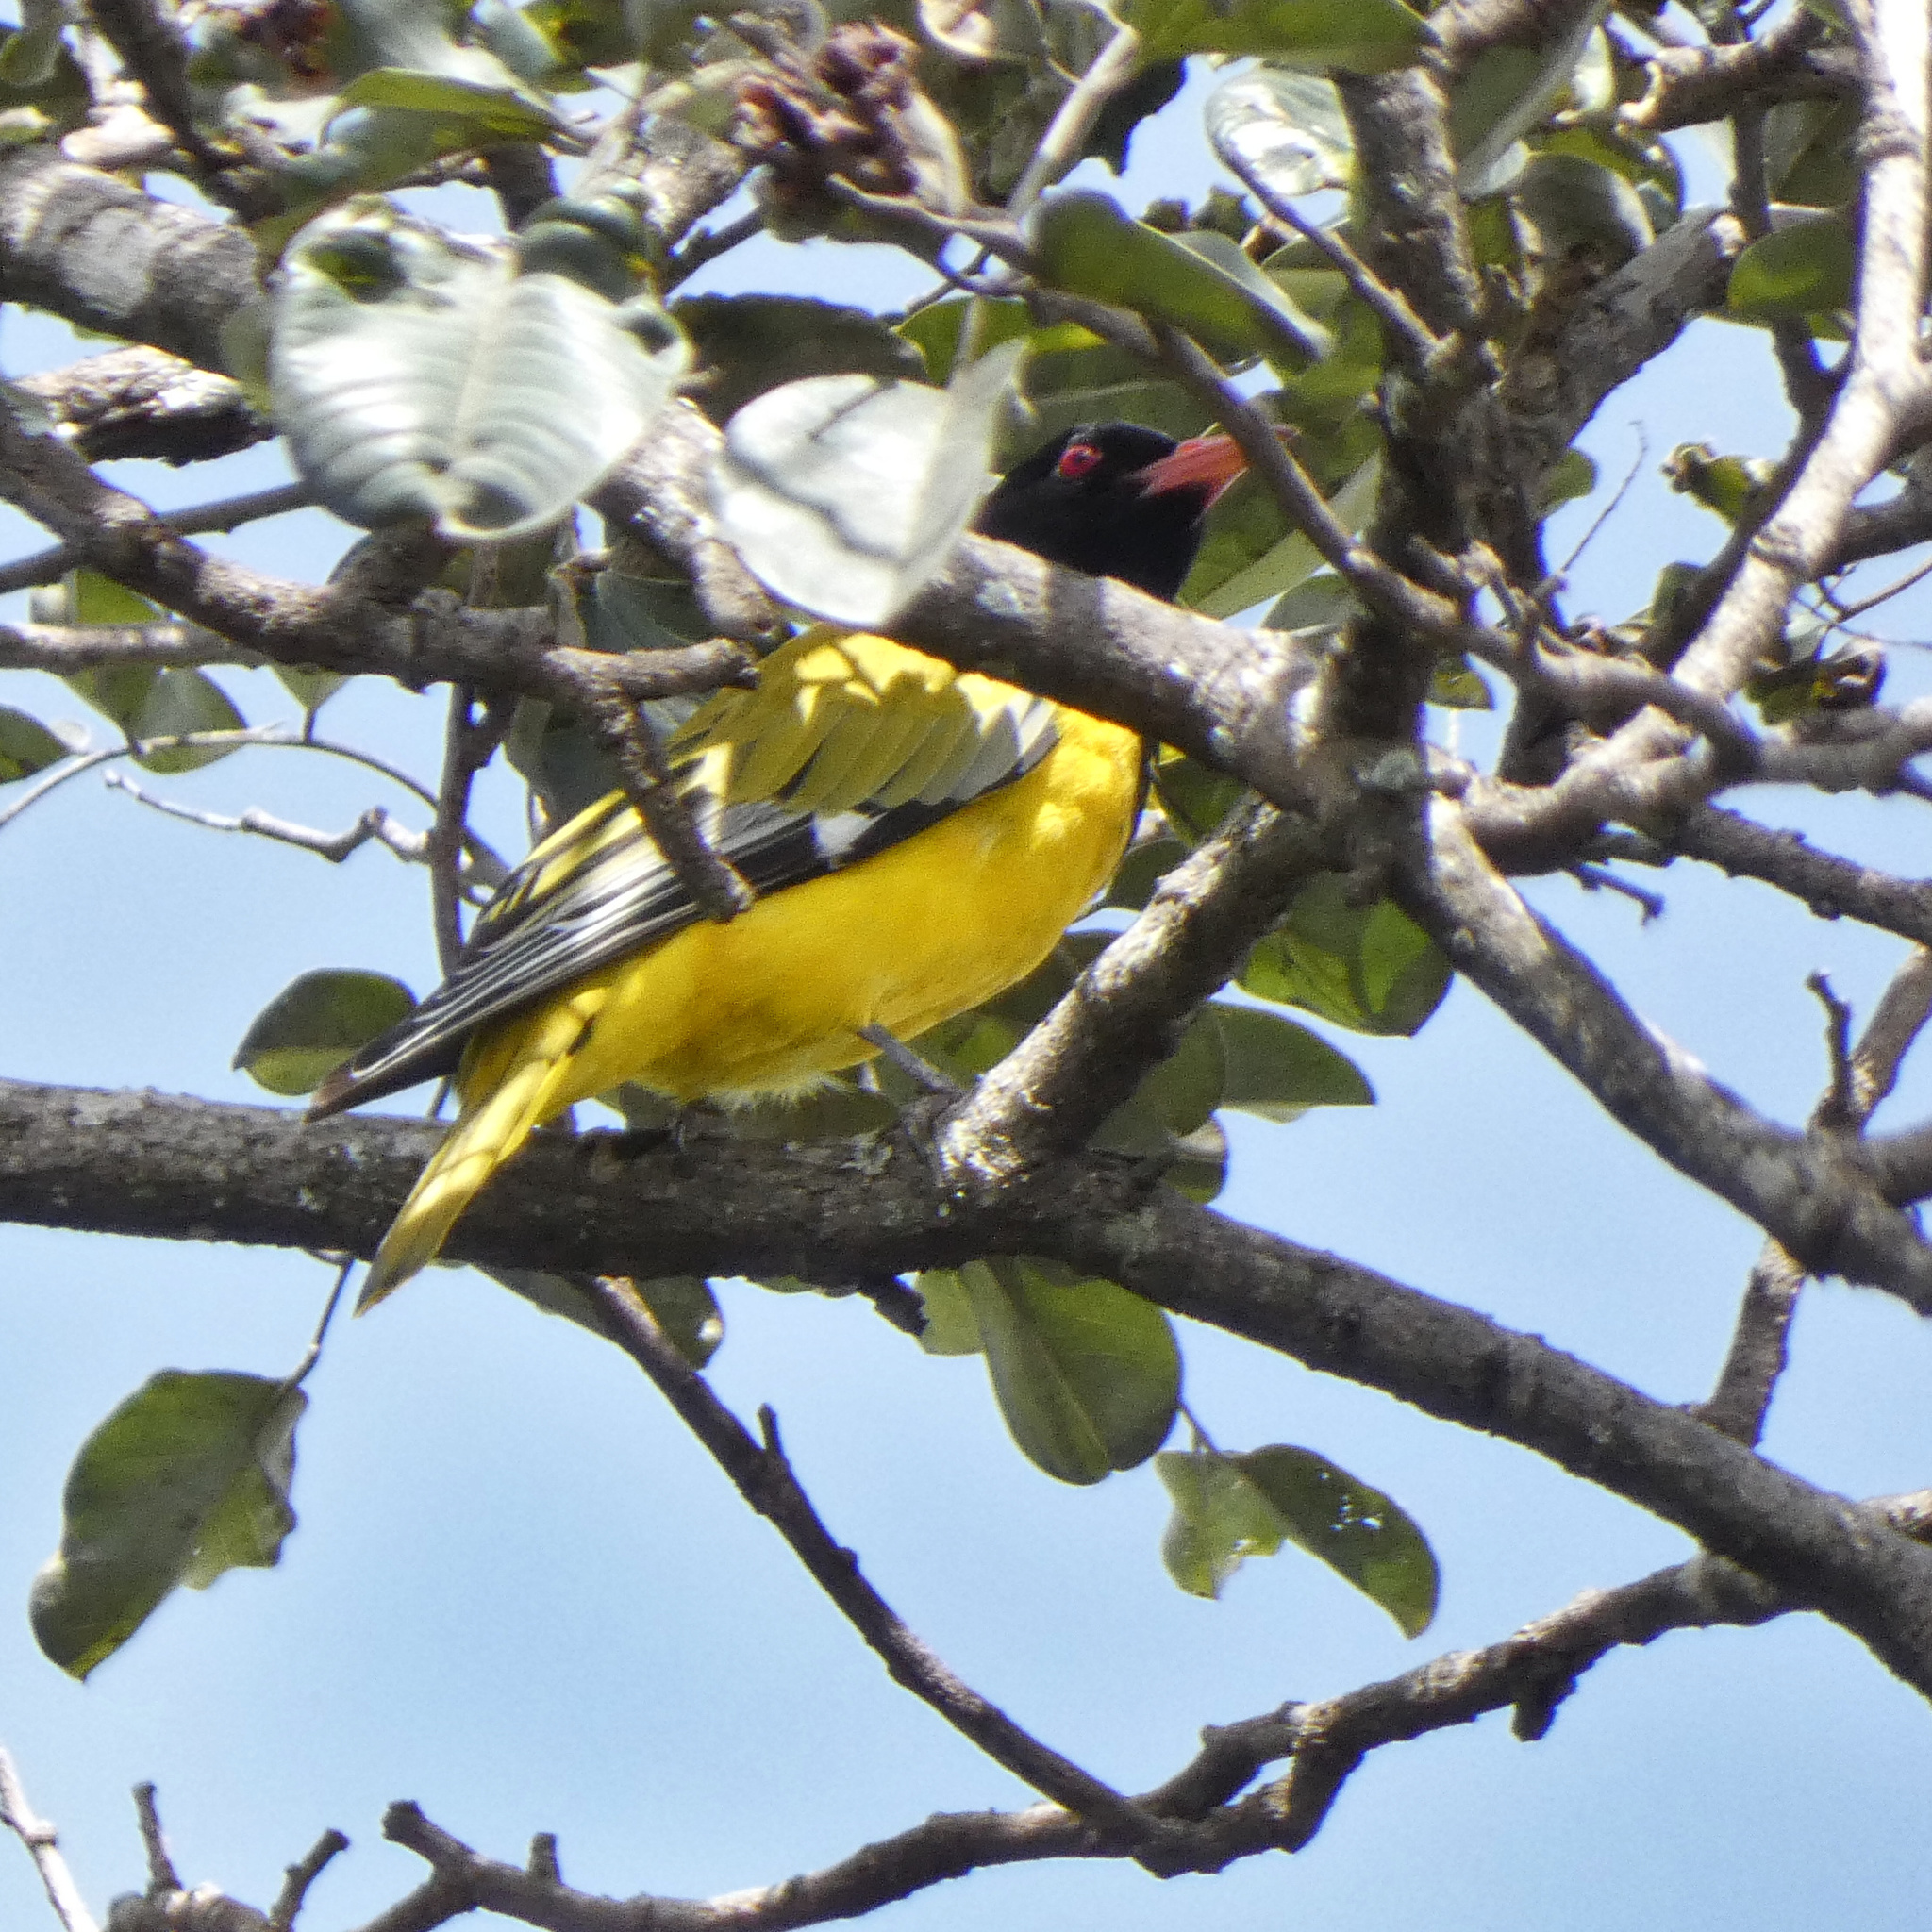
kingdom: Animalia
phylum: Chordata
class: Aves
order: Passeriformes
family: Oriolidae
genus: Oriolus
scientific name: Oriolus larvatus
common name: Black-headed oriole
